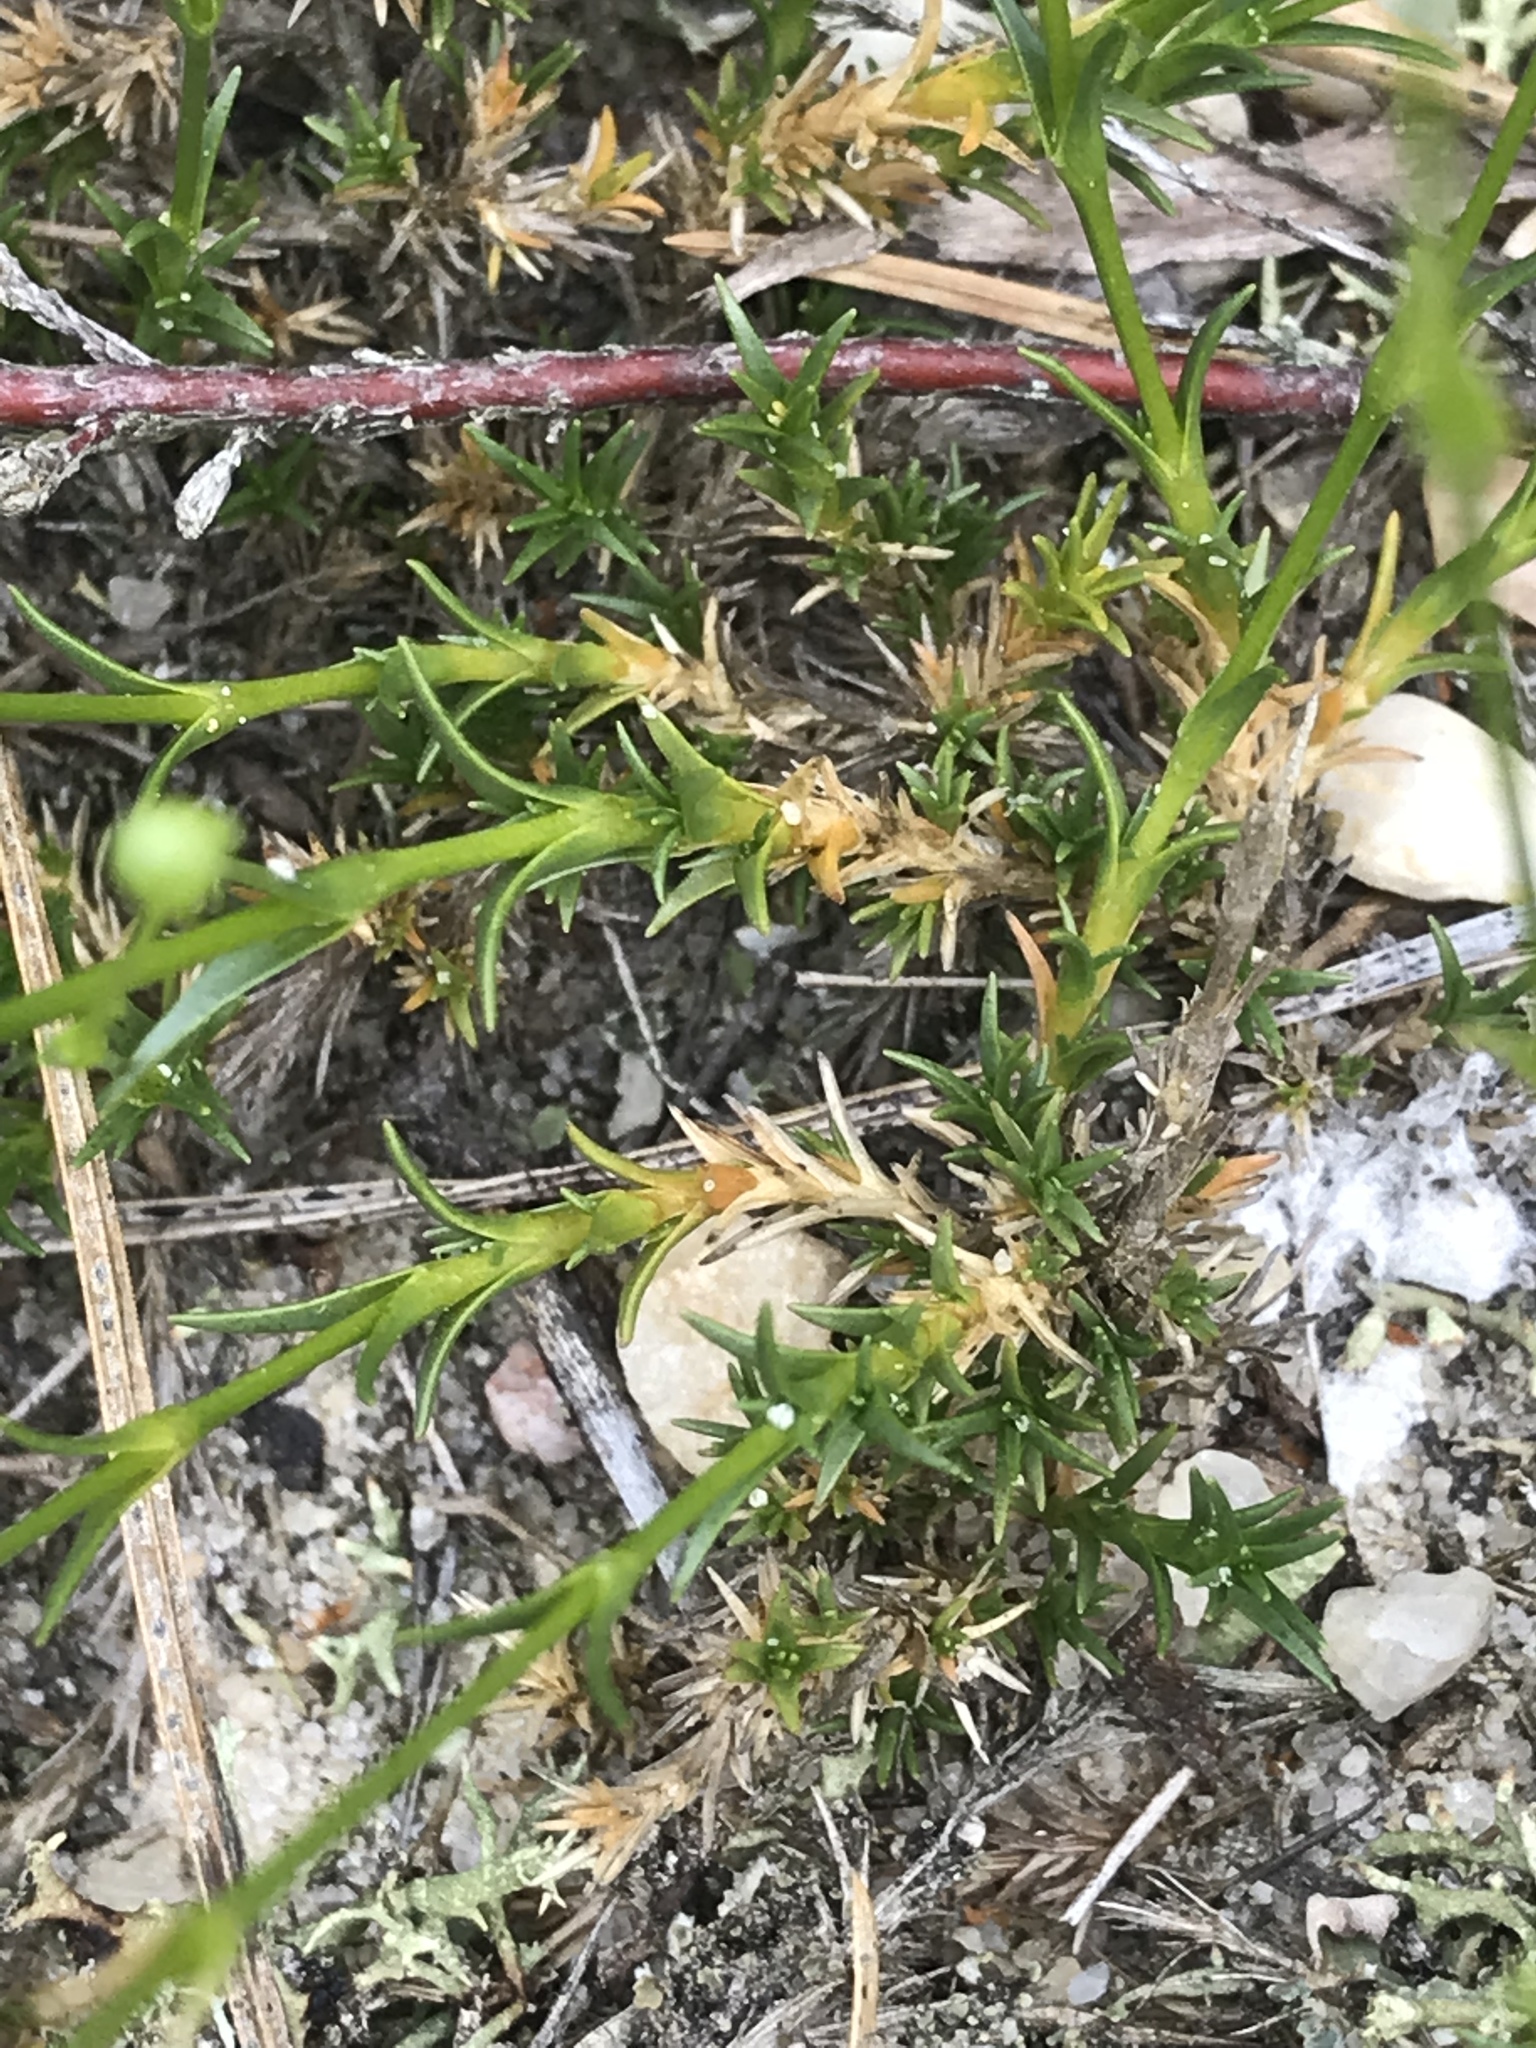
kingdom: Plantae
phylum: Tracheophyta
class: Magnoliopsida
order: Caryophyllales
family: Caryophyllaceae
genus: Geocarpon
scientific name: Geocarpon carolinianum
